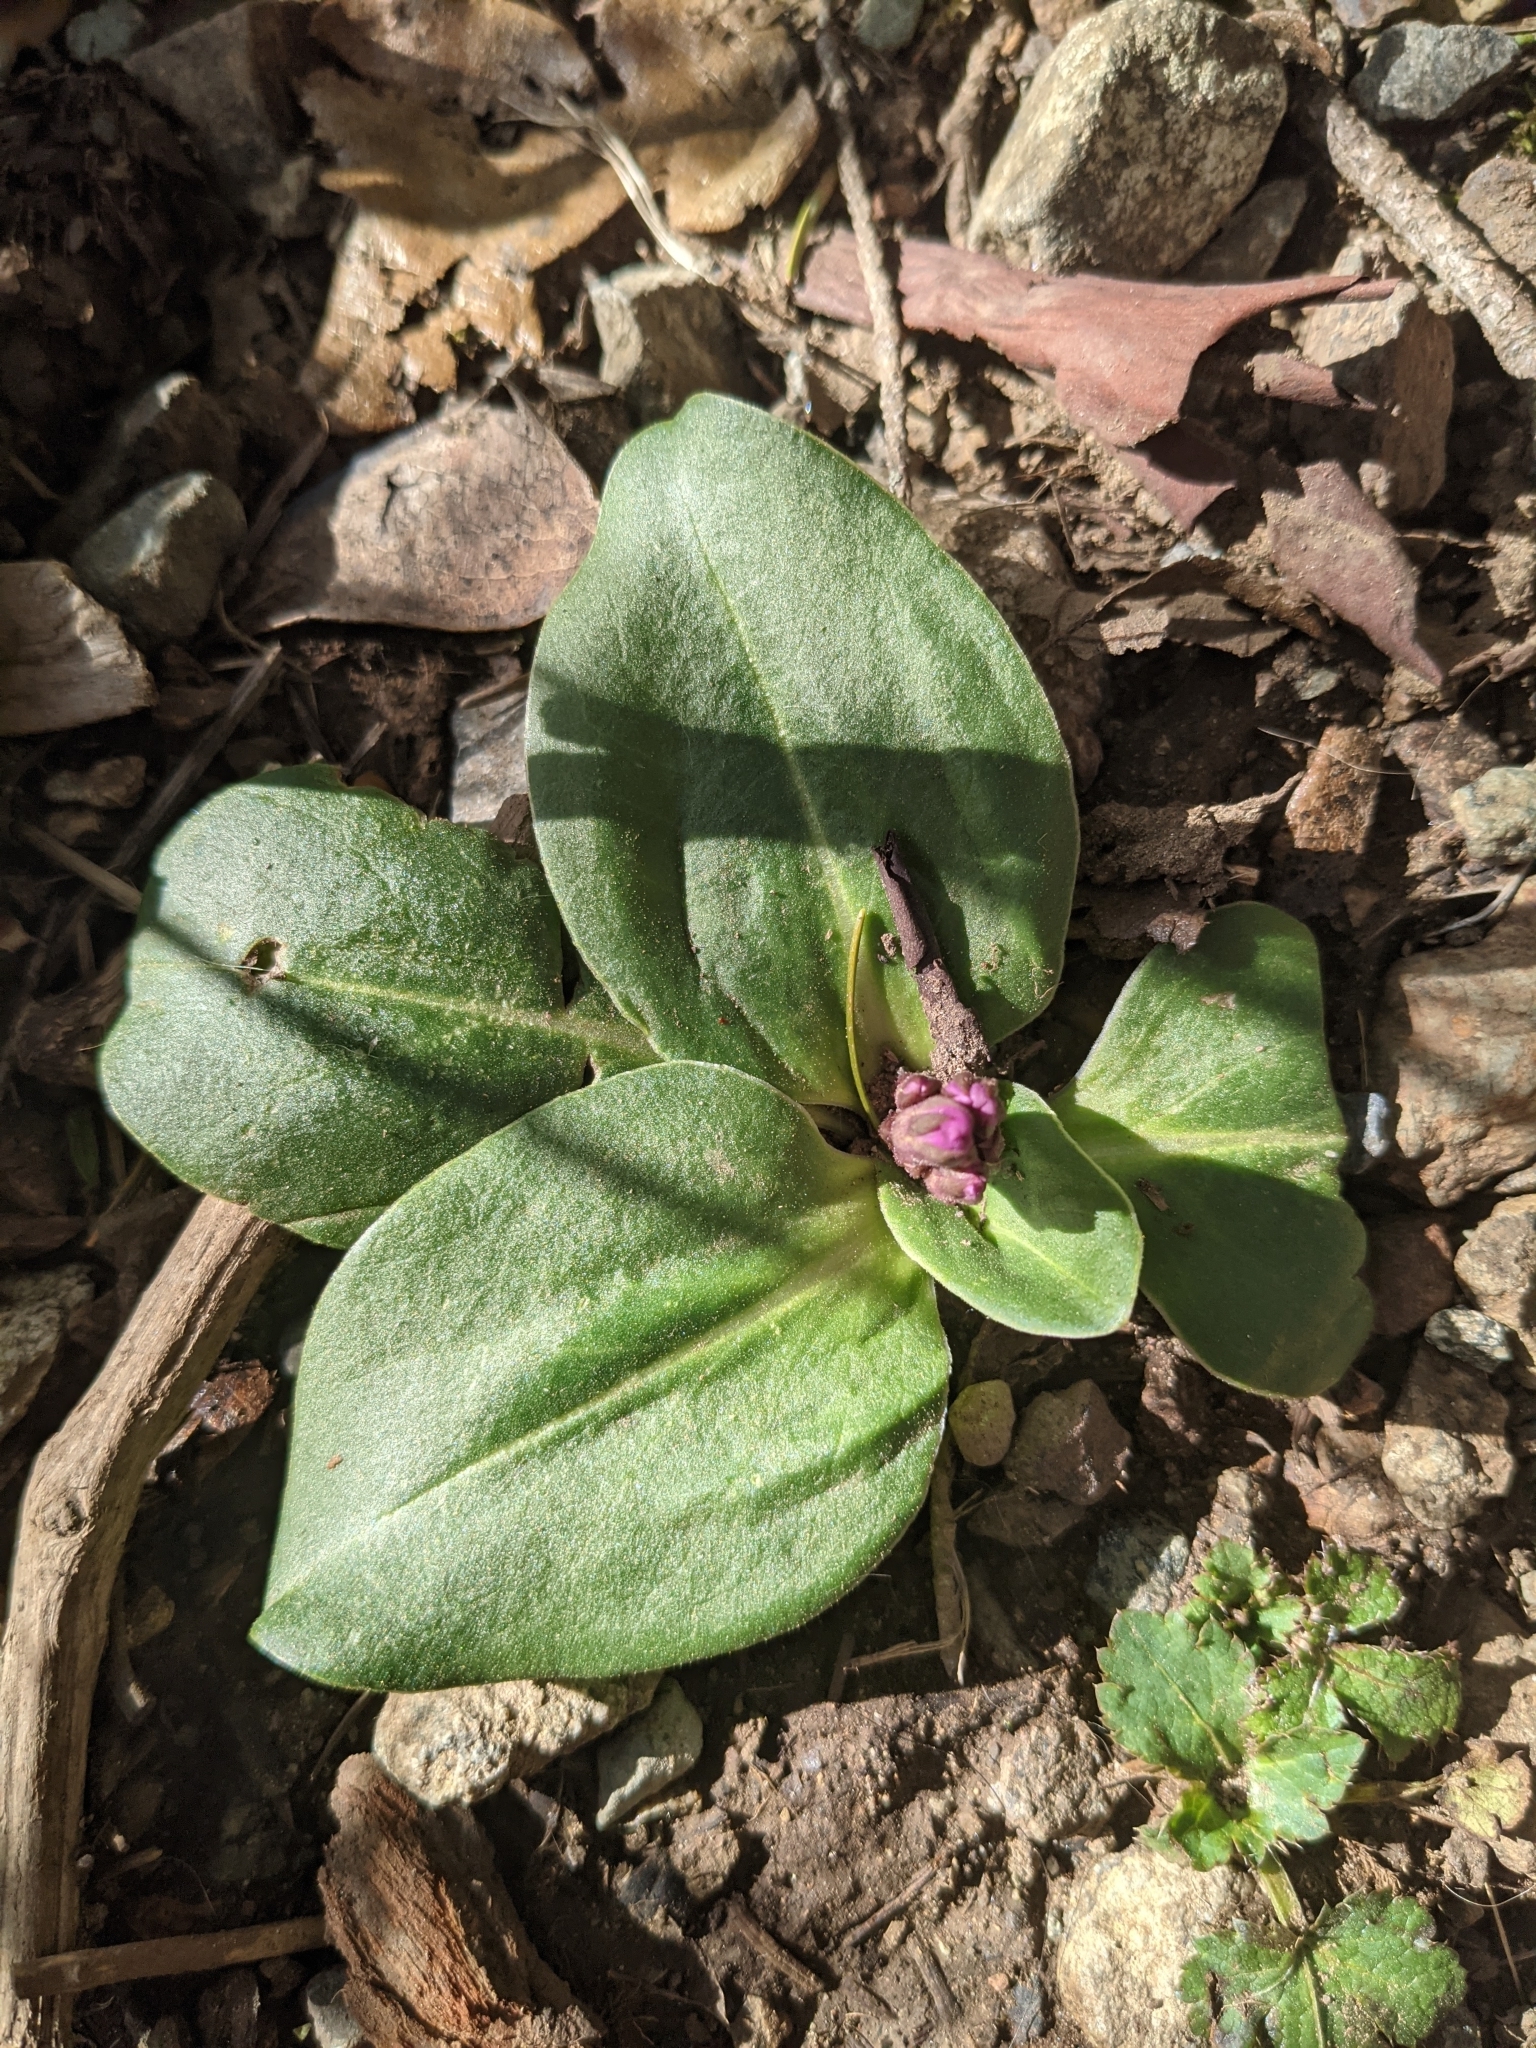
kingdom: Plantae
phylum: Tracheophyta
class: Magnoliopsida
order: Ericales
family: Primulaceae
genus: Dodecatheon
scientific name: Dodecatheon hendersonii
